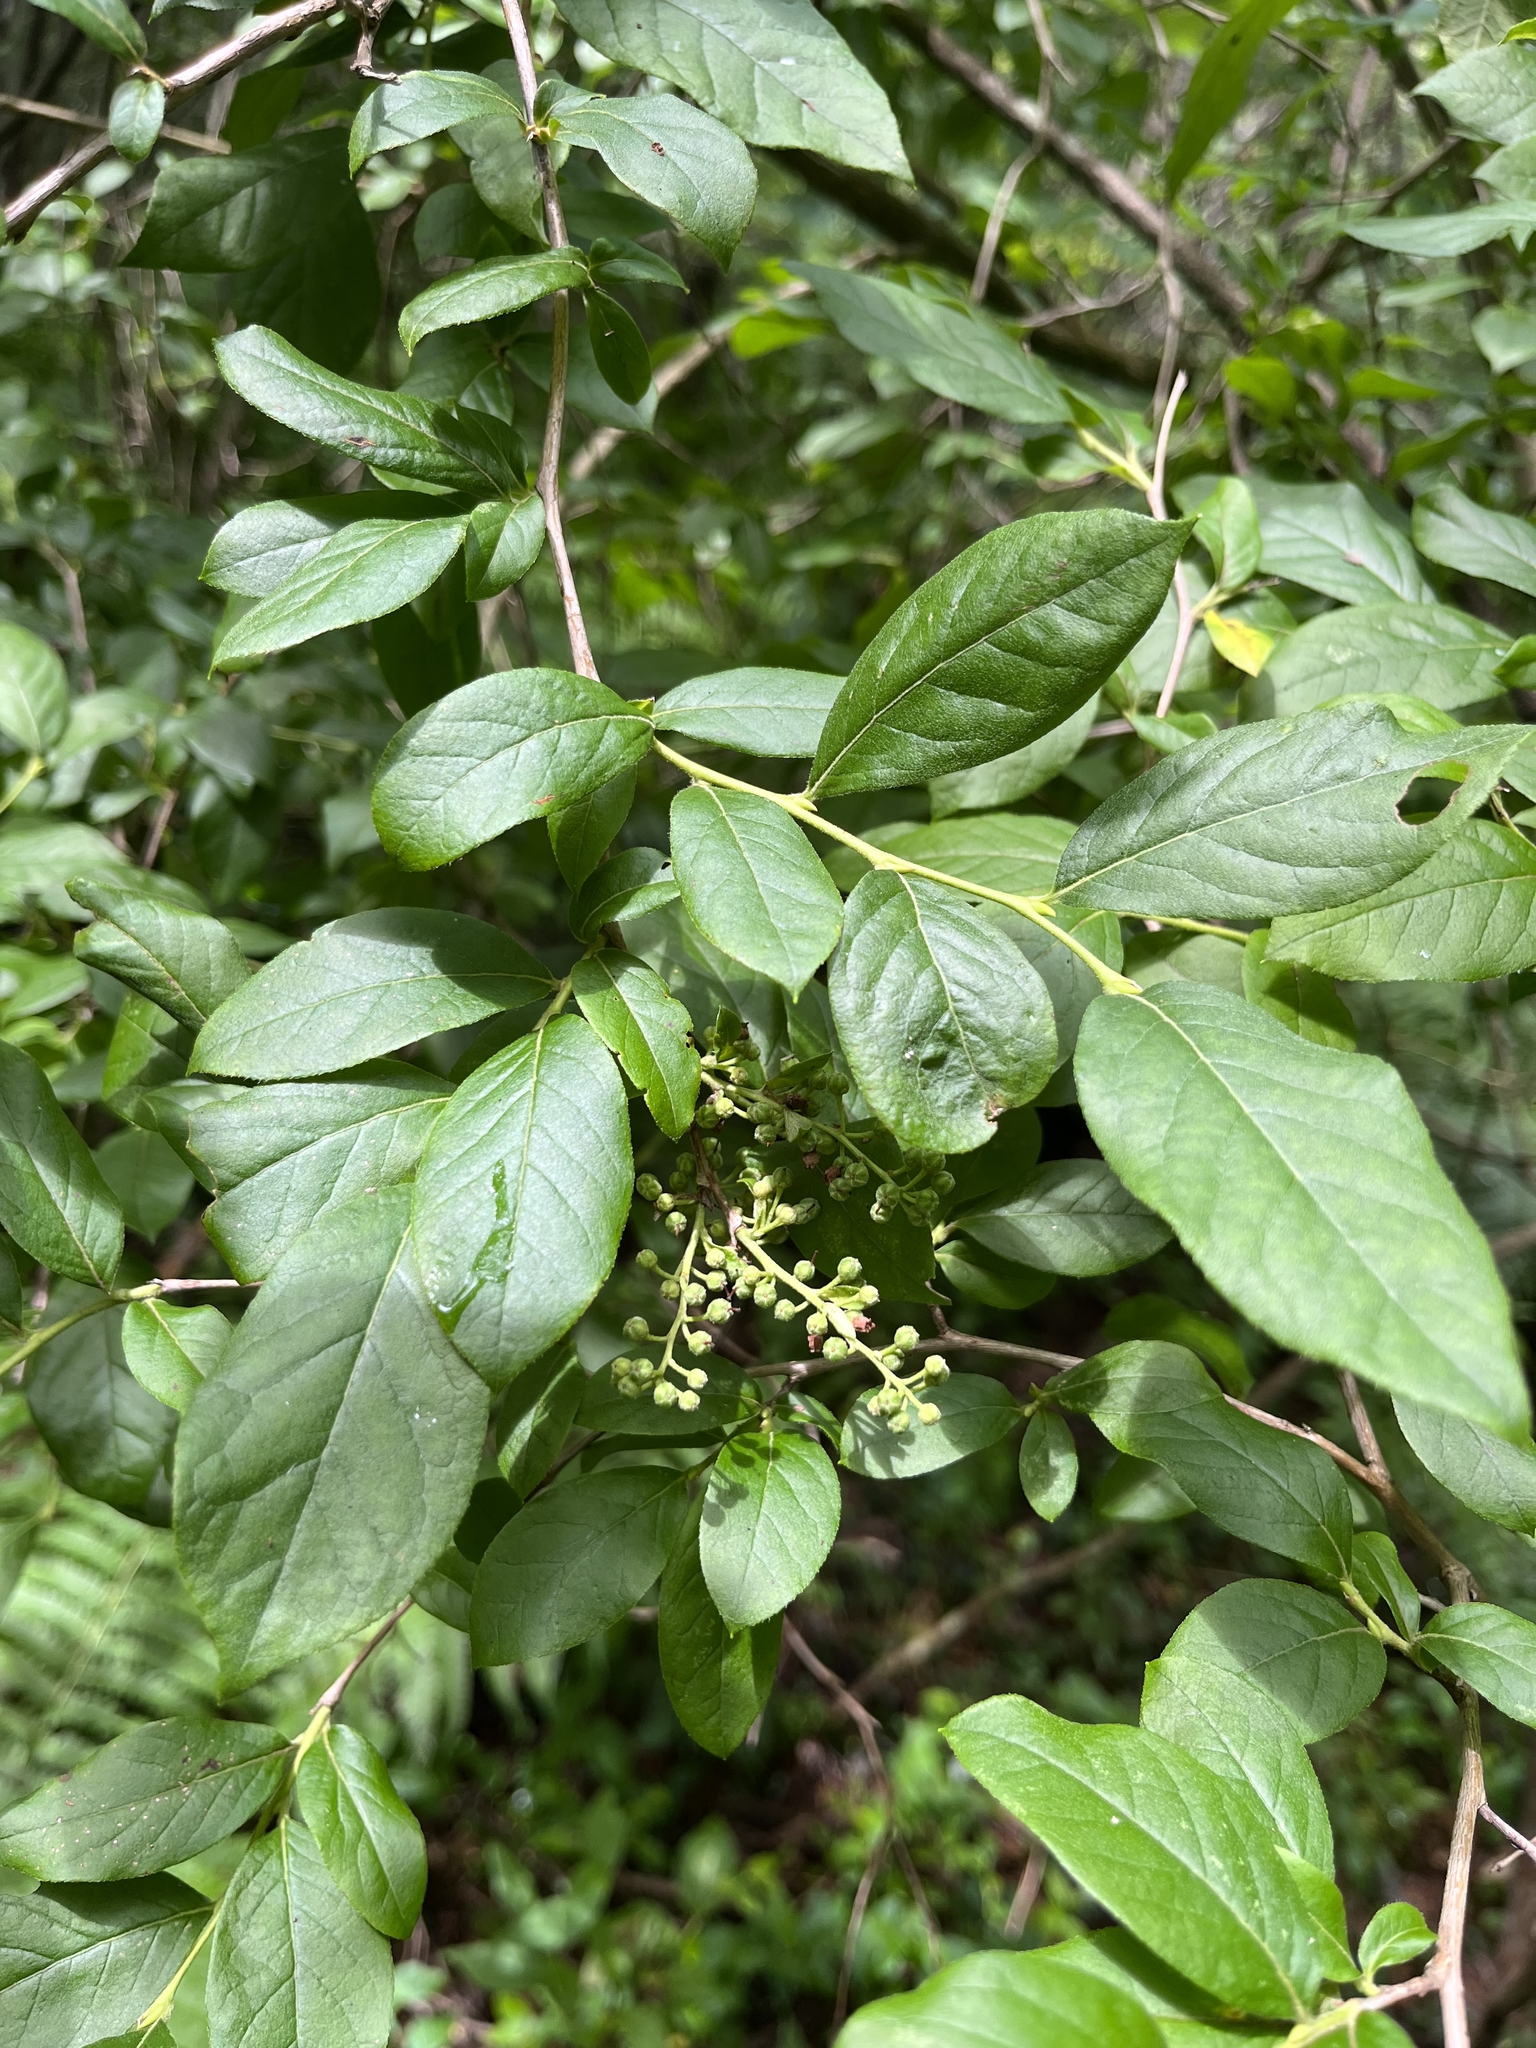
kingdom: Plantae
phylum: Tracheophyta
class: Magnoliopsida
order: Ericales
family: Ericaceae
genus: Lyonia
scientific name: Lyonia ligustrina
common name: Maleberry
